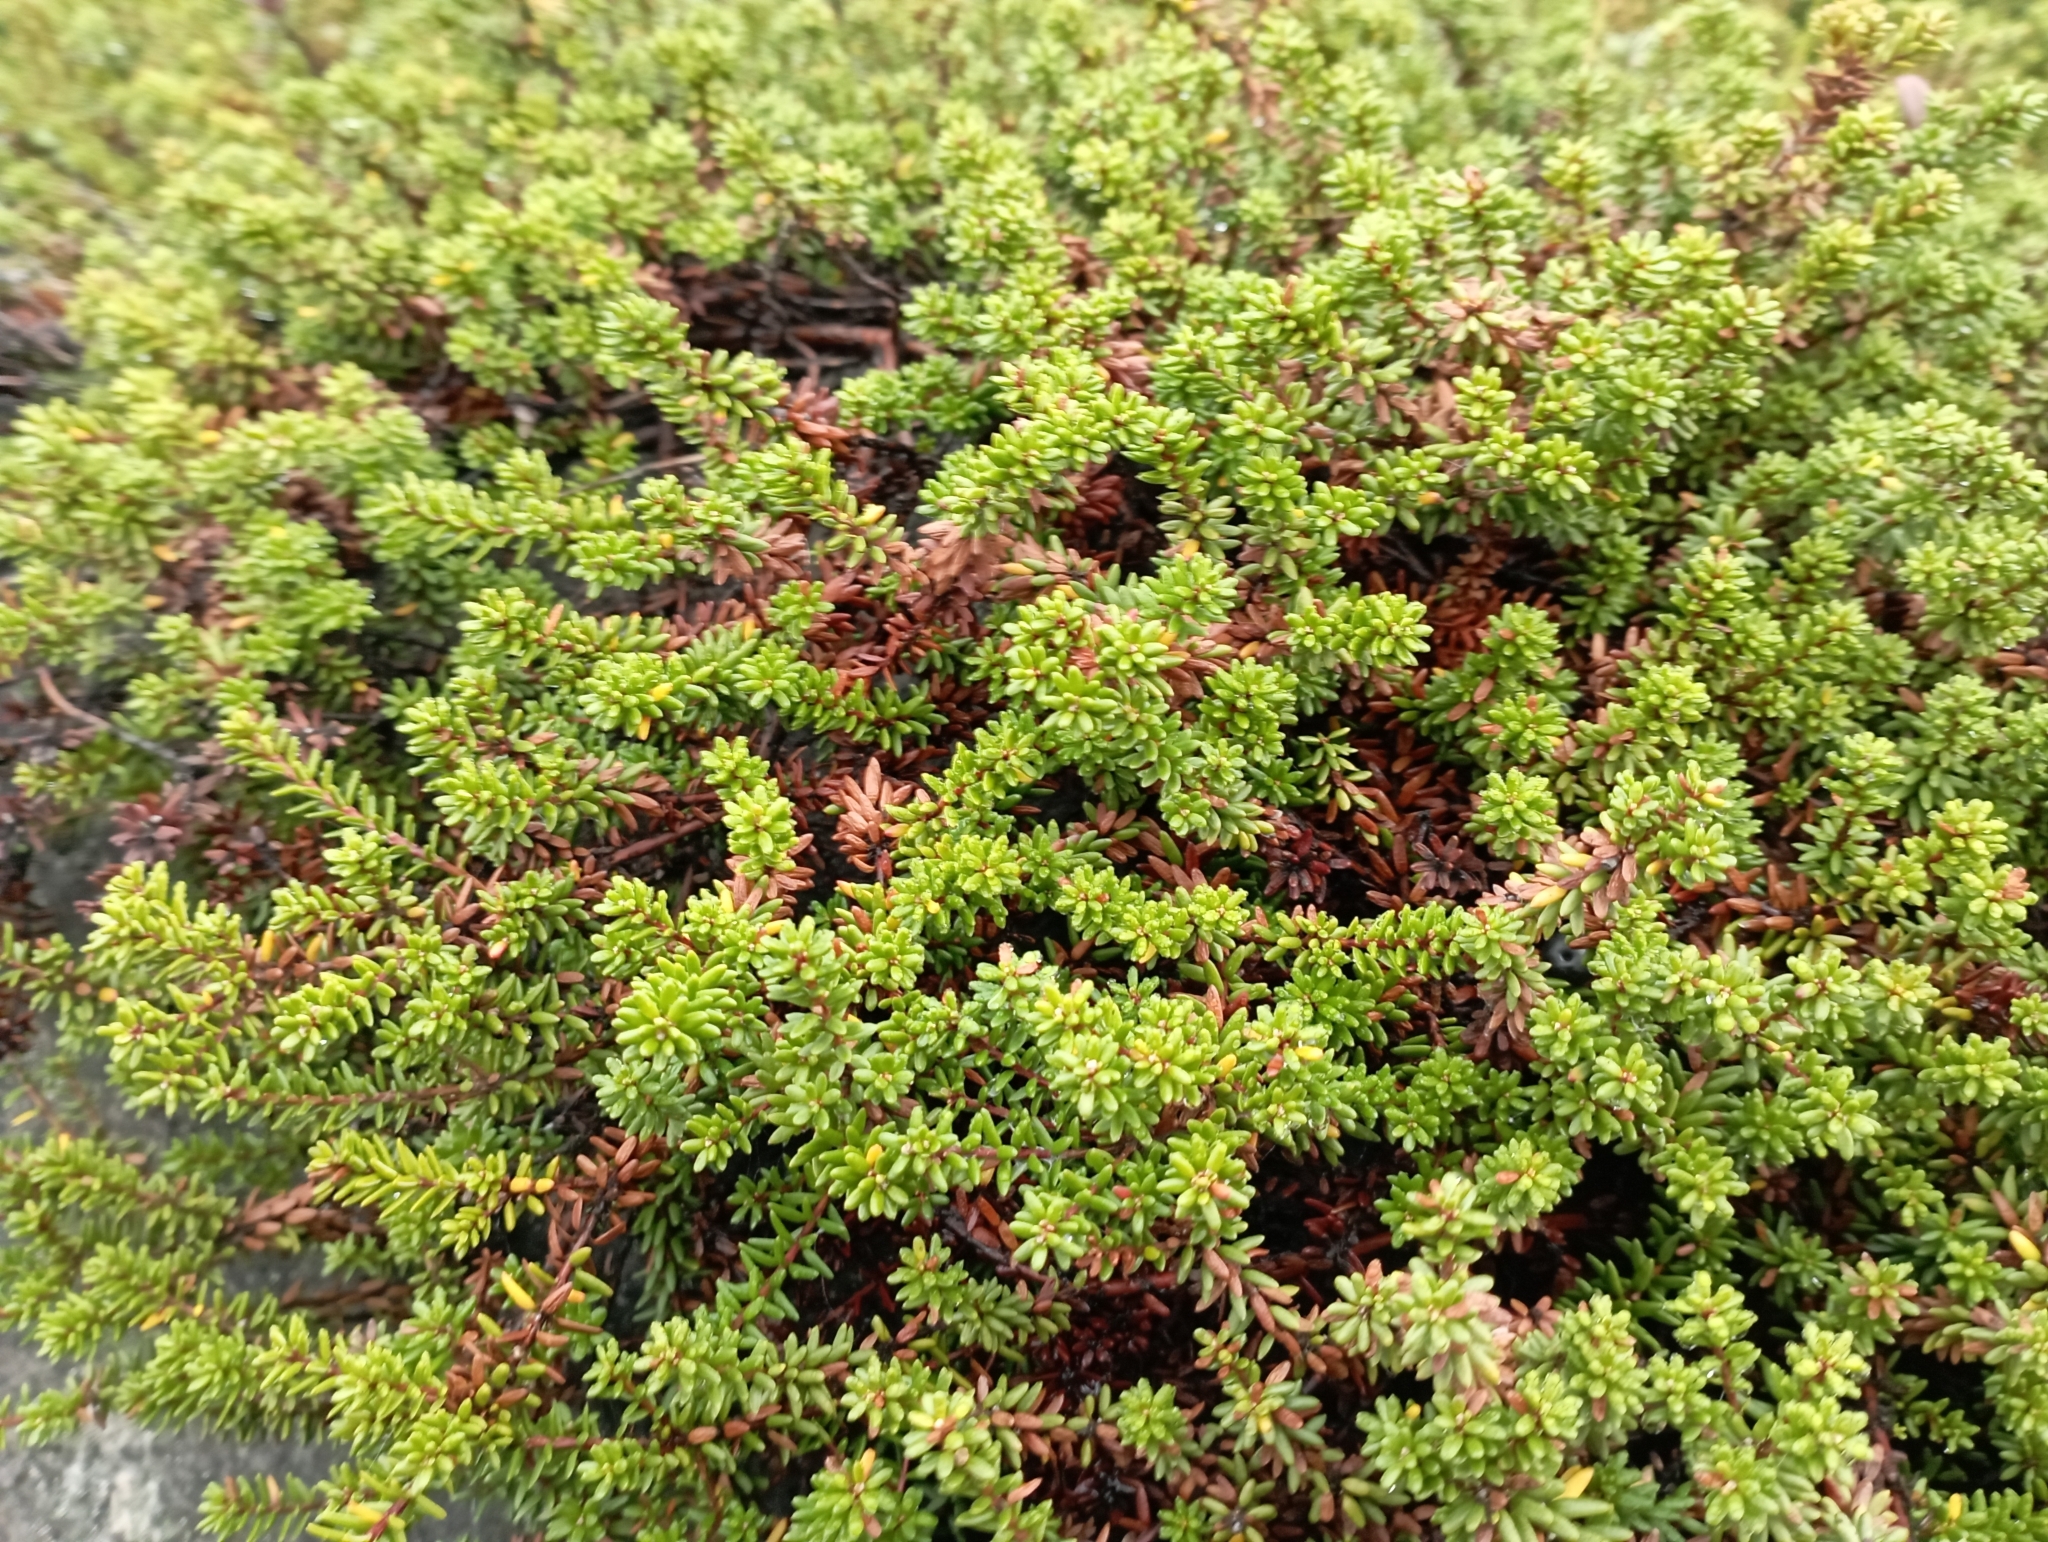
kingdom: Plantae
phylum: Tracheophyta
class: Magnoliopsida
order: Ericales
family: Ericaceae
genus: Empetrum
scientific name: Empetrum nigrum
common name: Black crowberry
